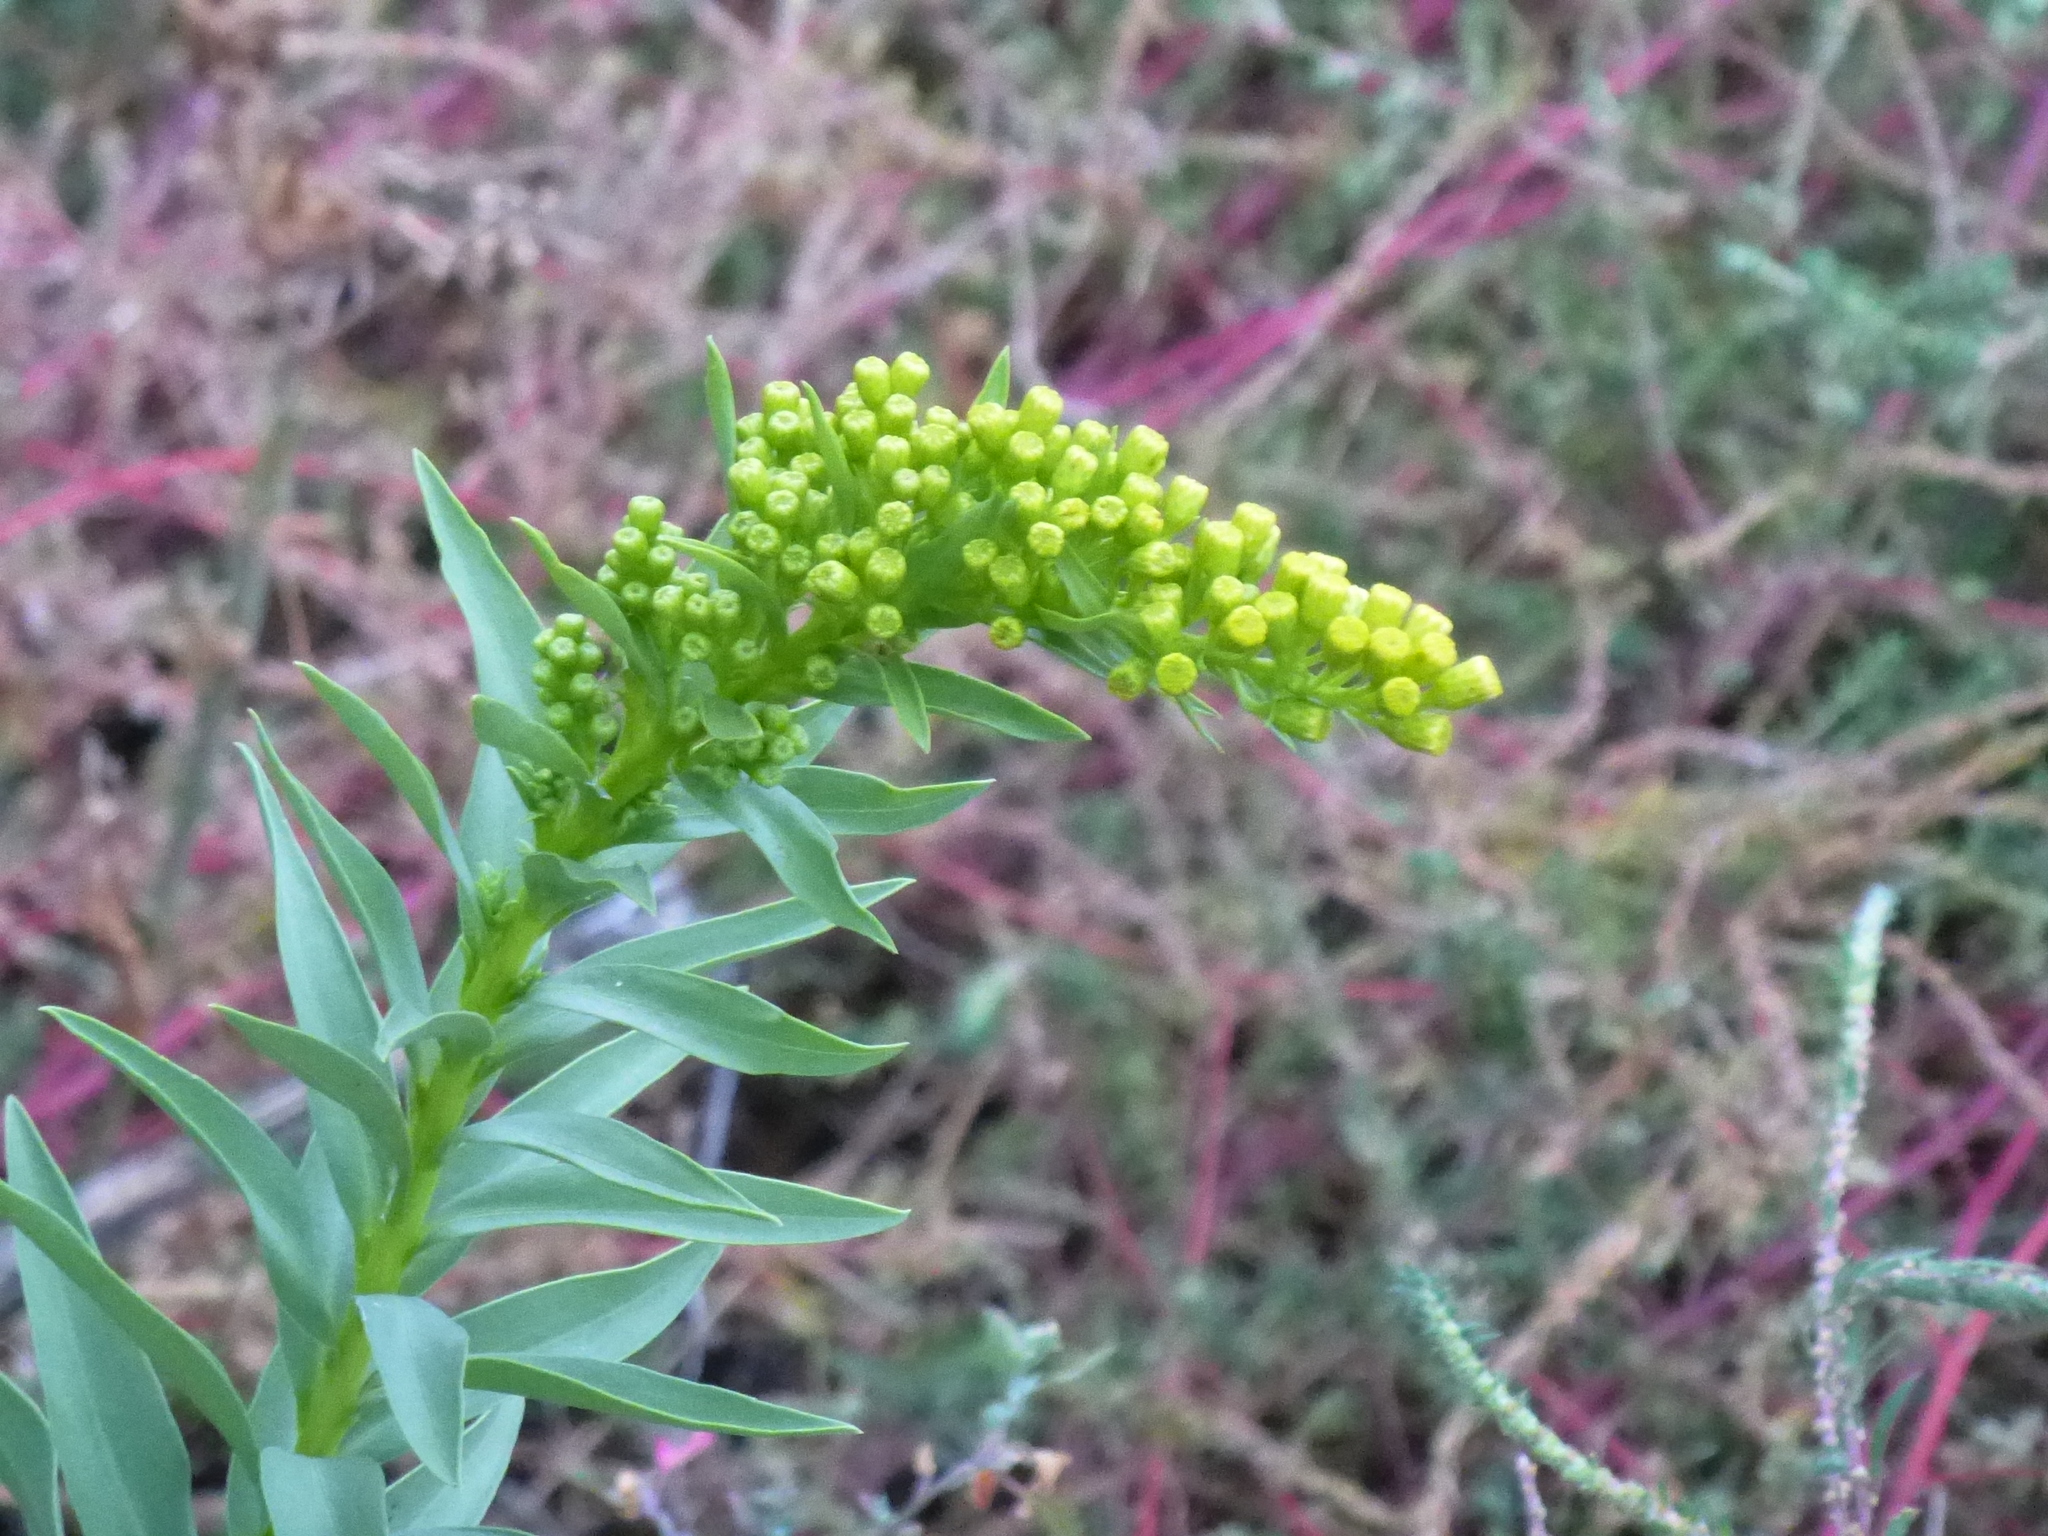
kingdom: Plantae
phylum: Tracheophyta
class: Magnoliopsida
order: Asterales
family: Asteraceae
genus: Solidago
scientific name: Solidago sempervirens
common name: Salt-marsh goldenrod
